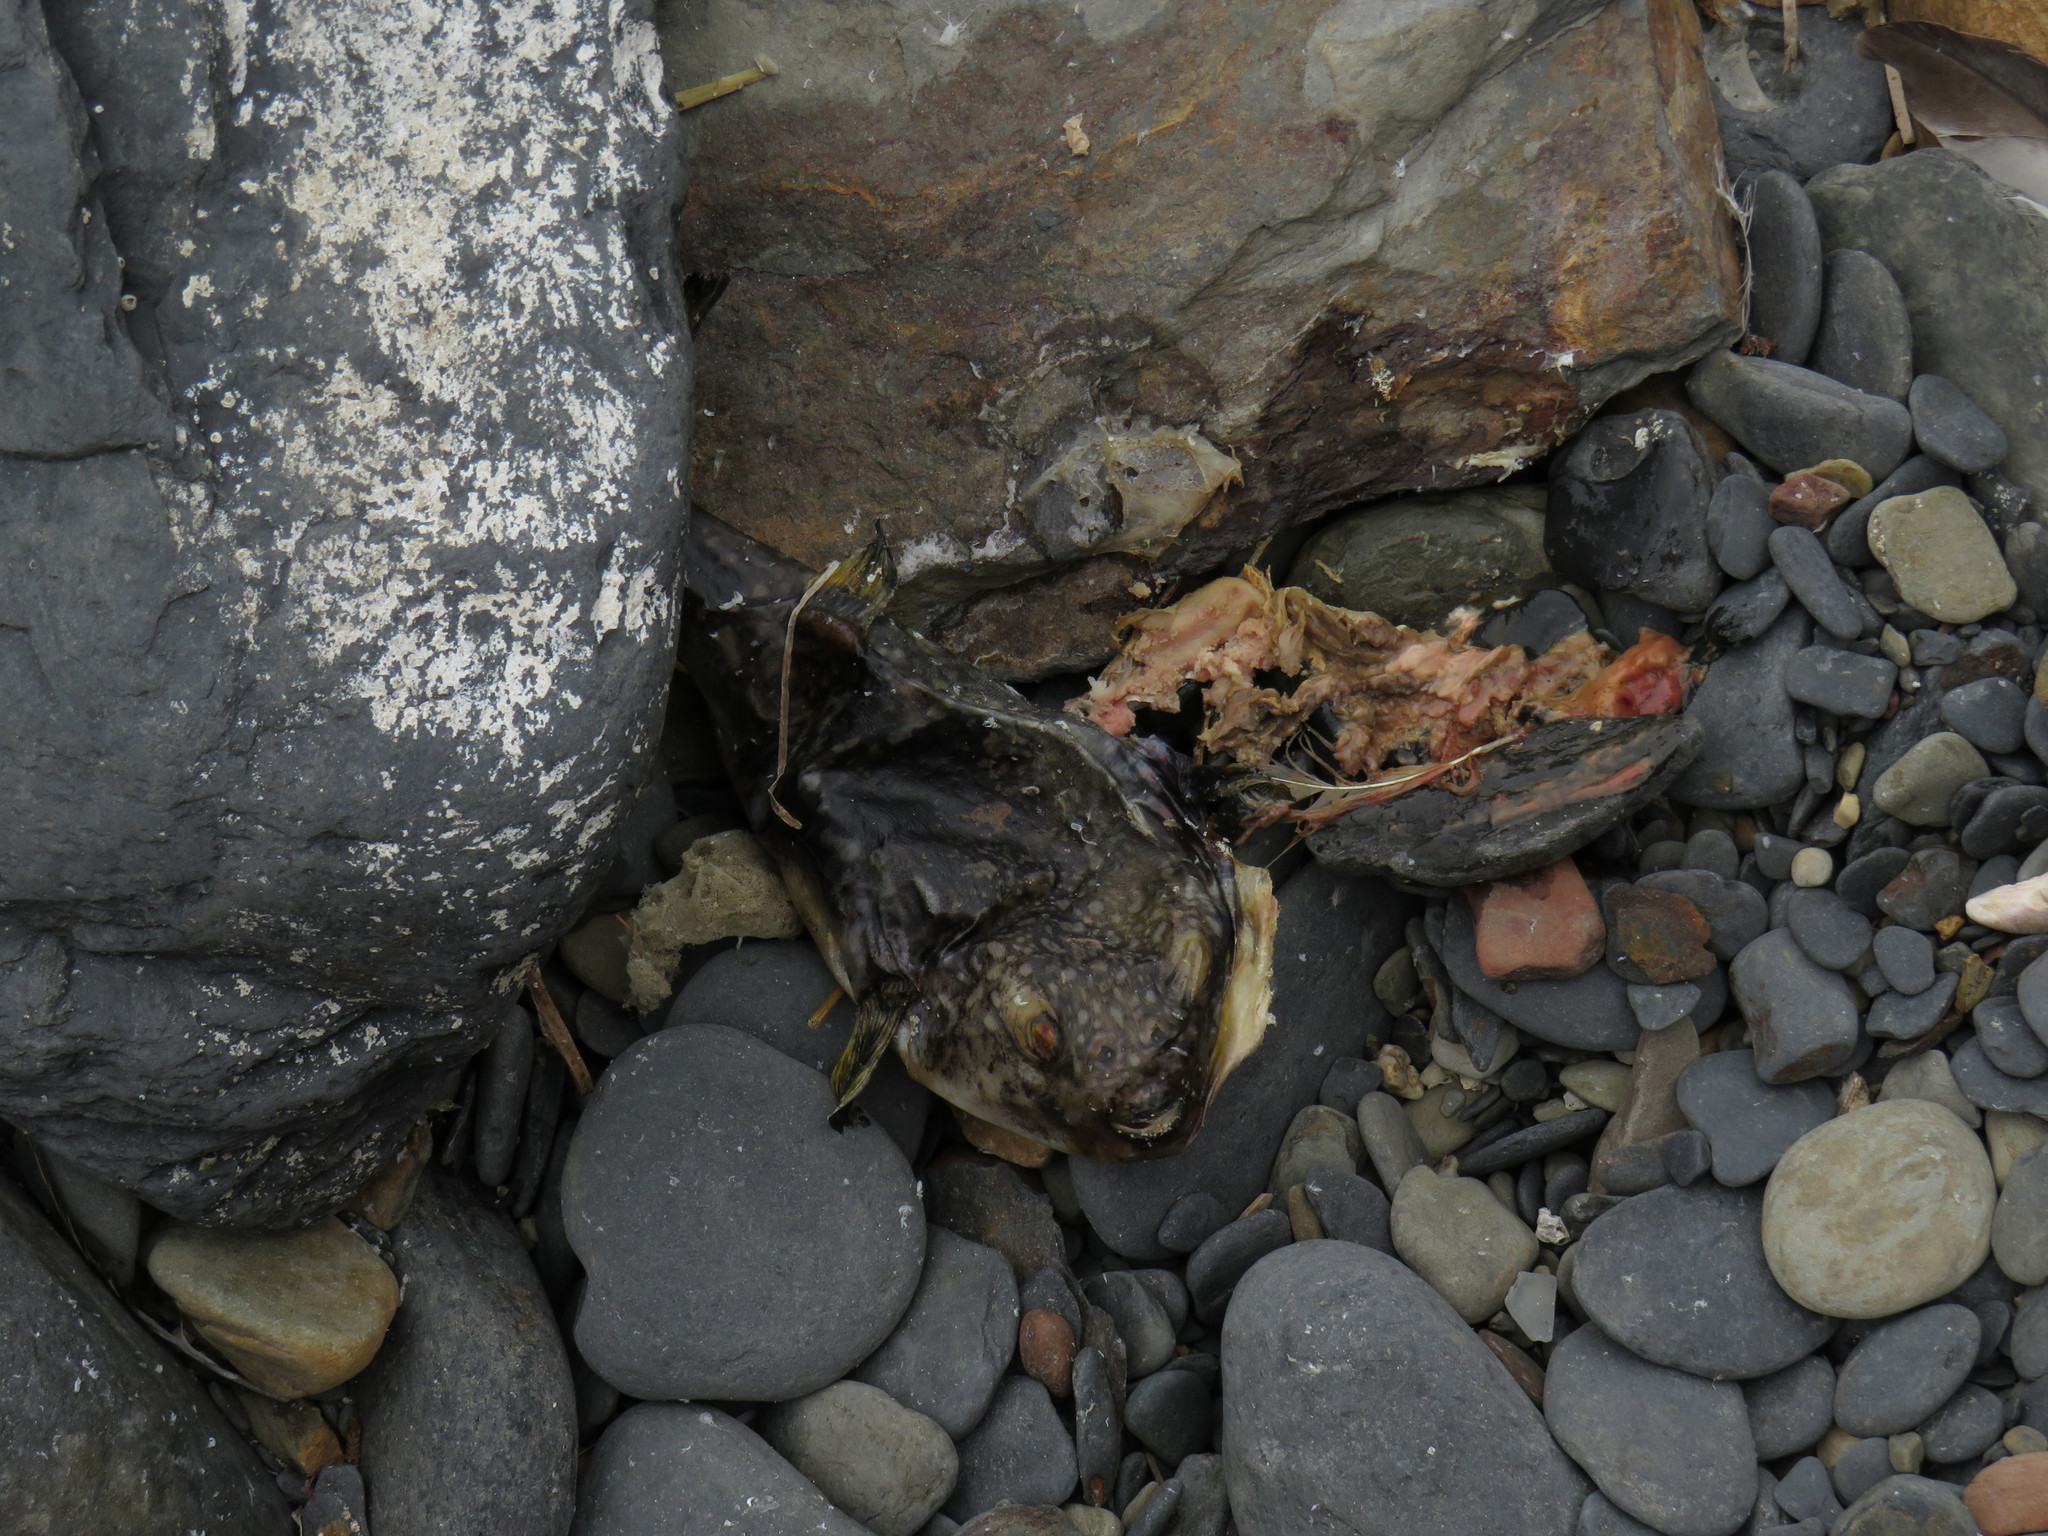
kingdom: Animalia
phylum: Chordata
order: Tetraodontiformes
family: Tetraodontidae
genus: Amblyrhynchote
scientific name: Amblyrhynchote honckenii
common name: Evileye blaasop
